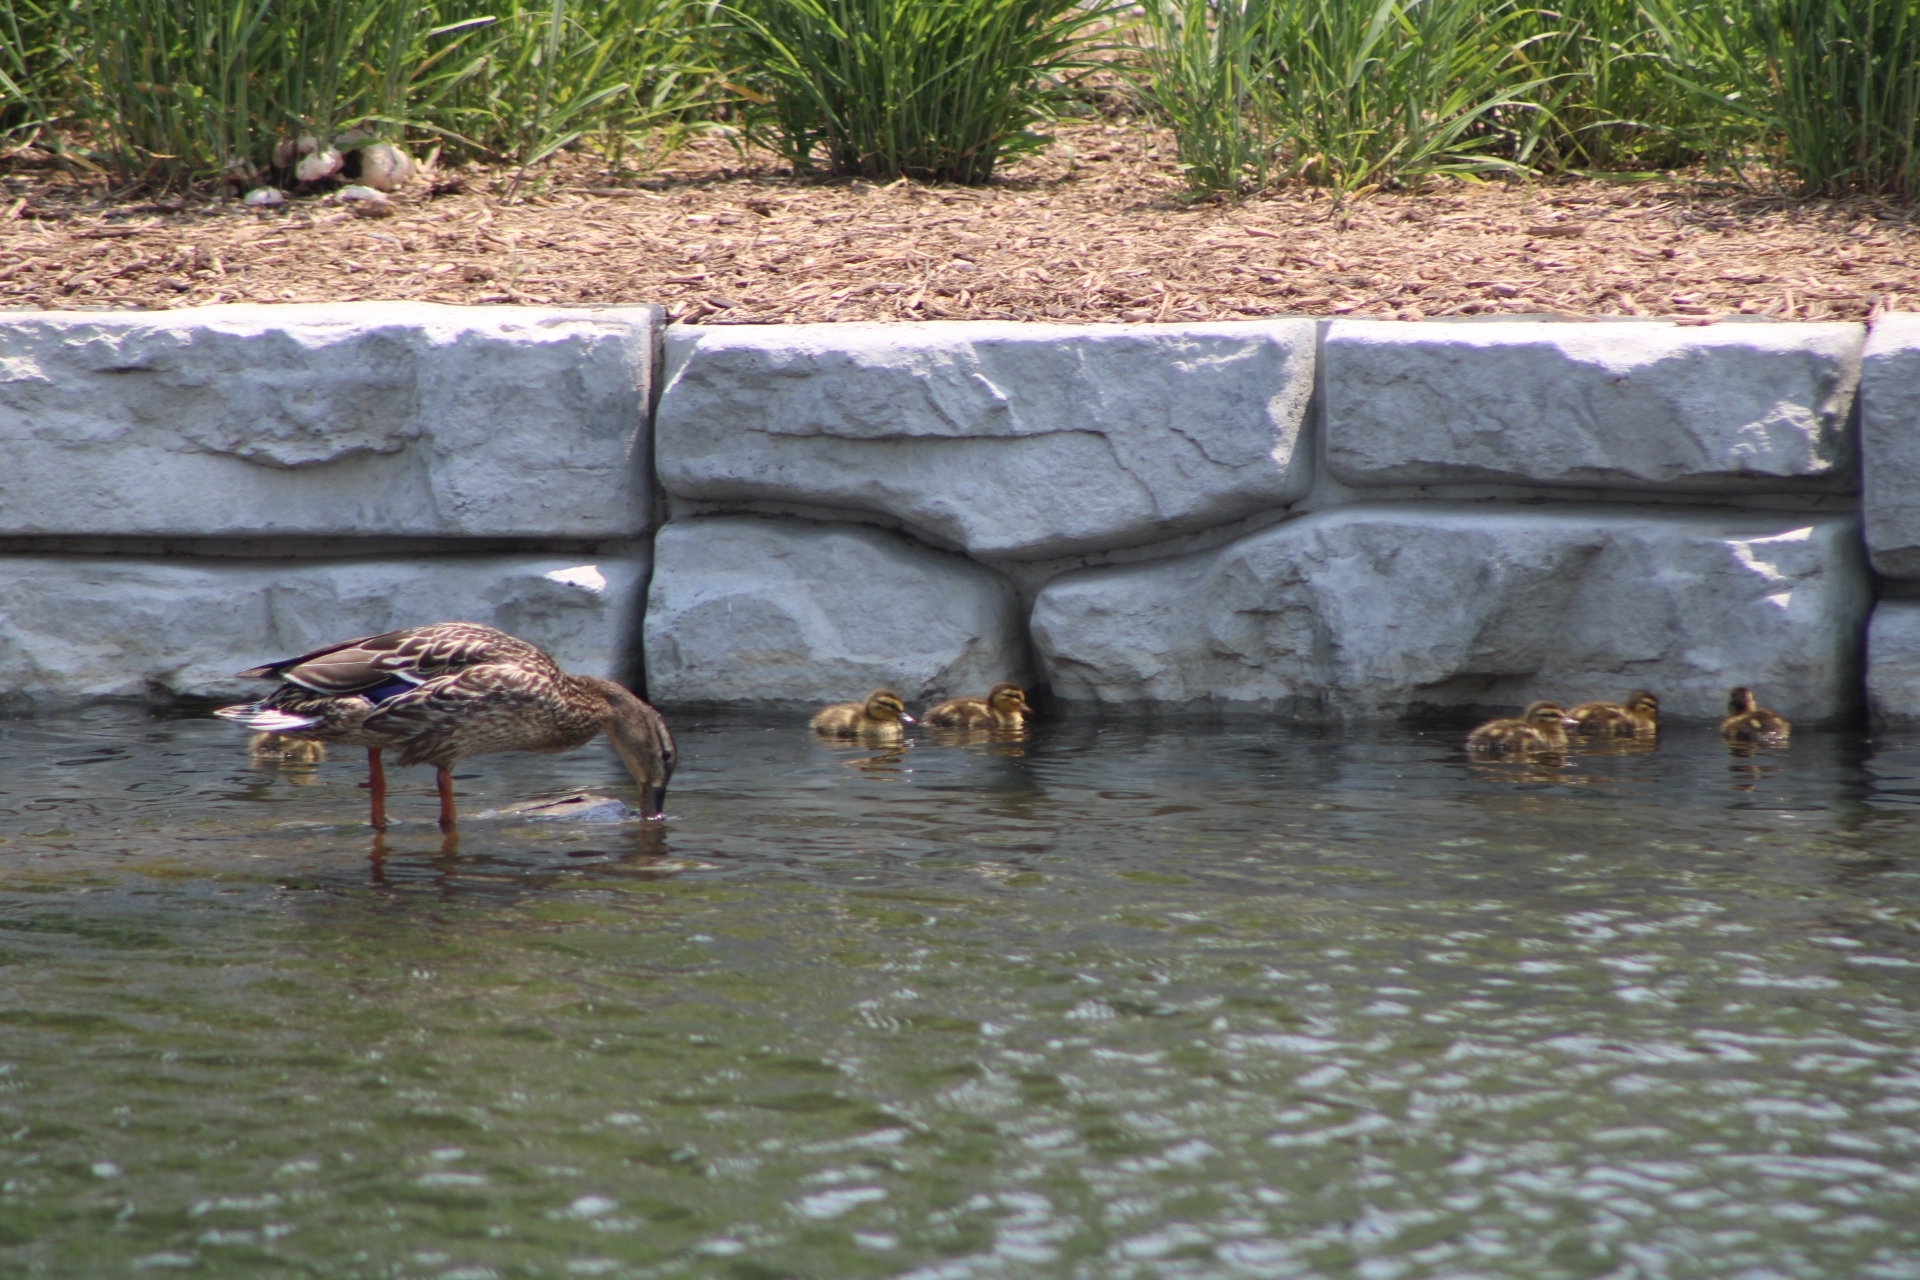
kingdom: Animalia
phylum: Chordata
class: Aves
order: Anseriformes
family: Anatidae
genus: Anas
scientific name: Anas platyrhynchos
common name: Mallard
